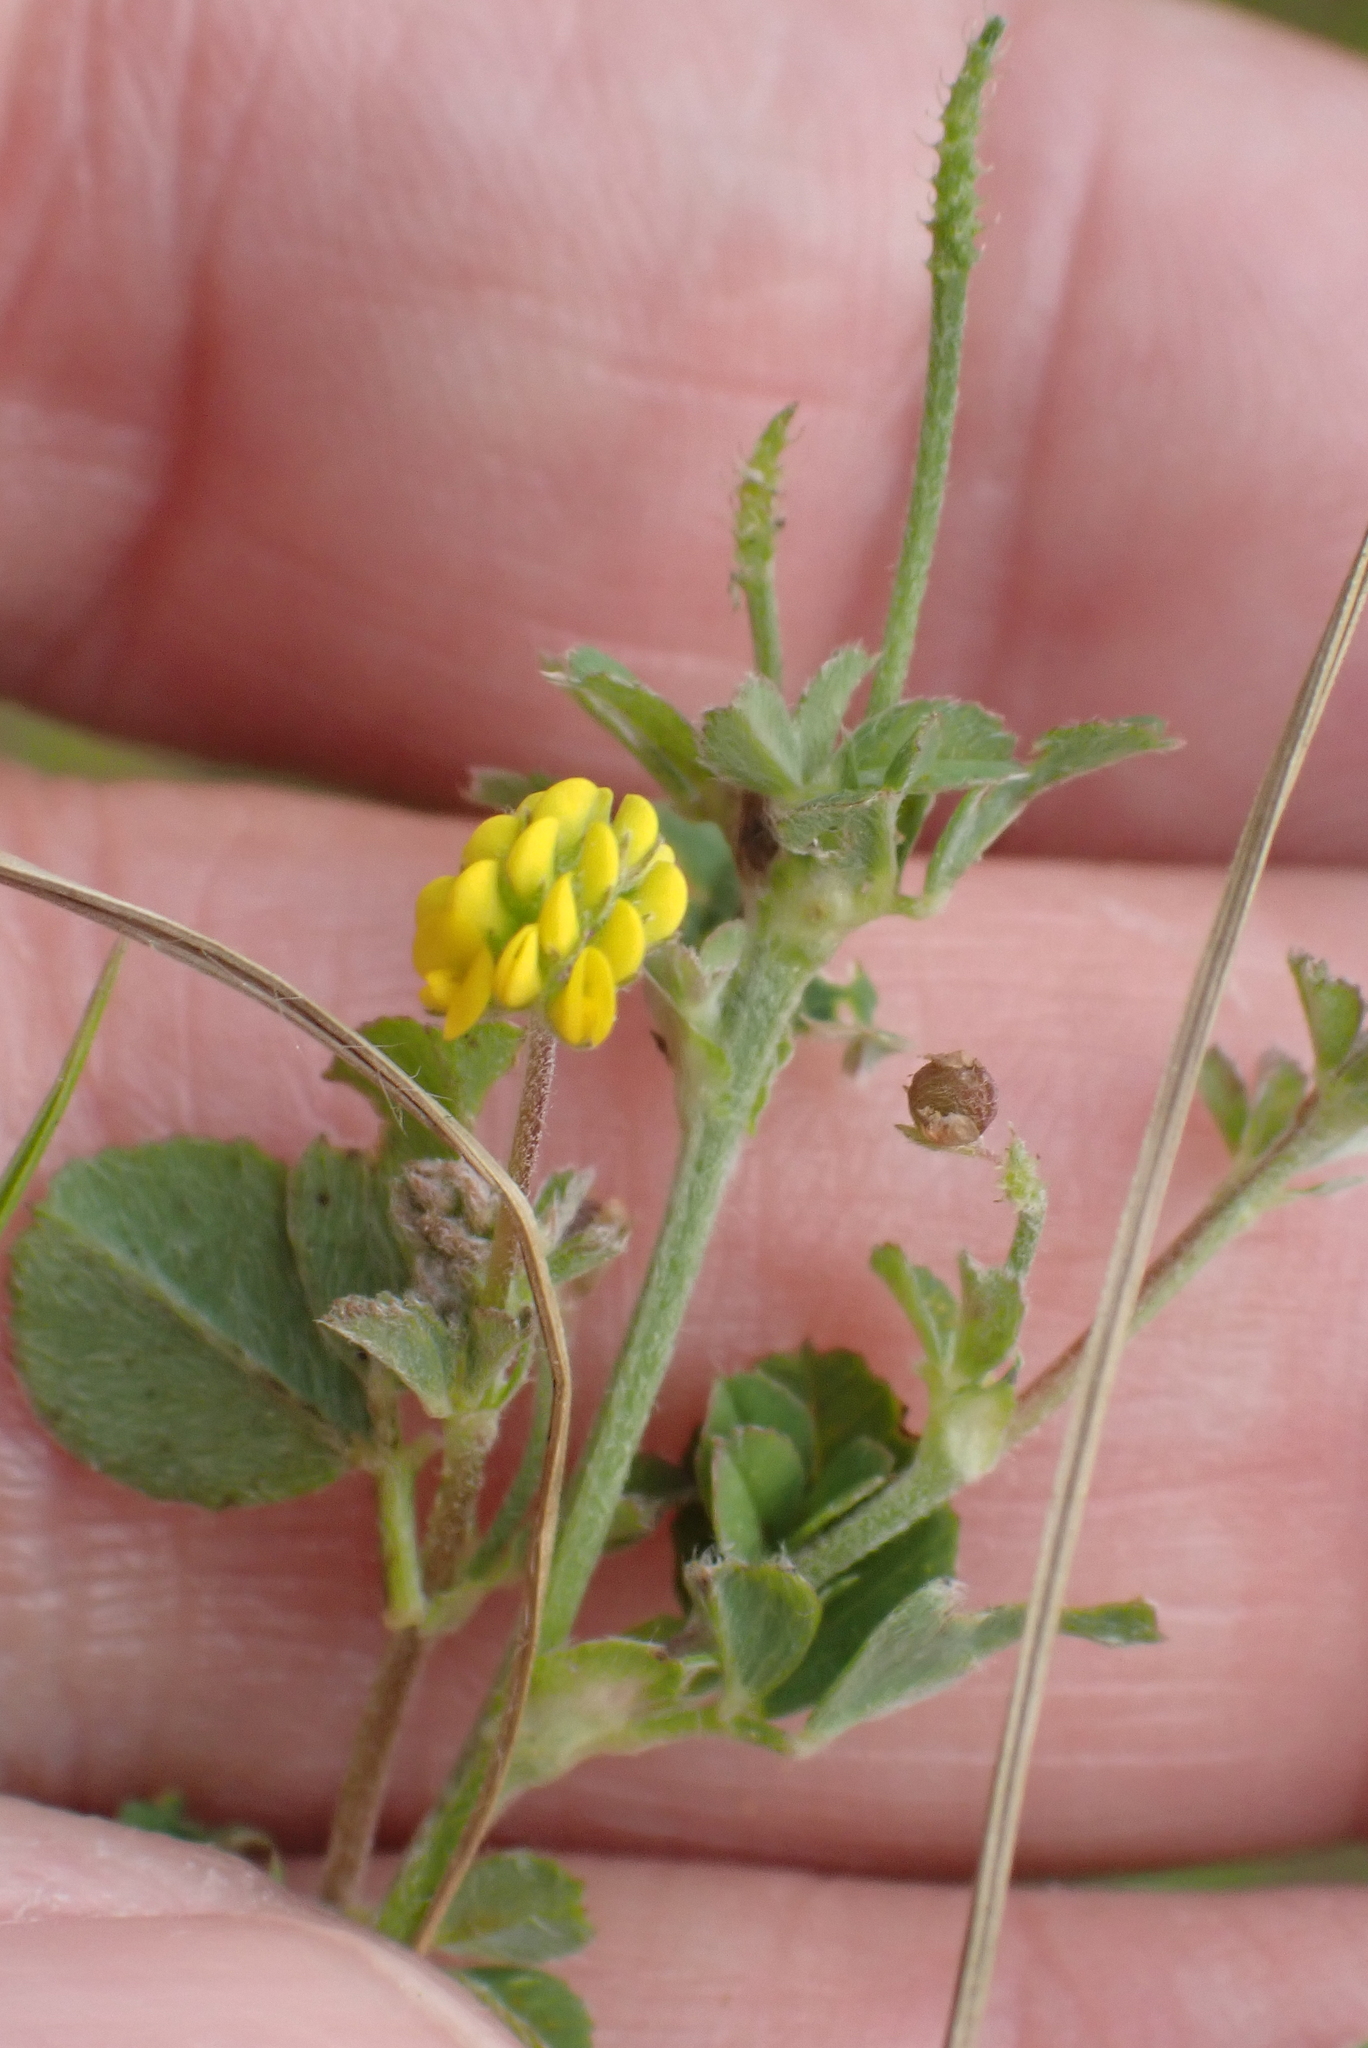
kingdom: Plantae
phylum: Tracheophyta
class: Magnoliopsida
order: Fabales
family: Fabaceae
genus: Medicago
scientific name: Medicago lupulina
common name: Black medick
